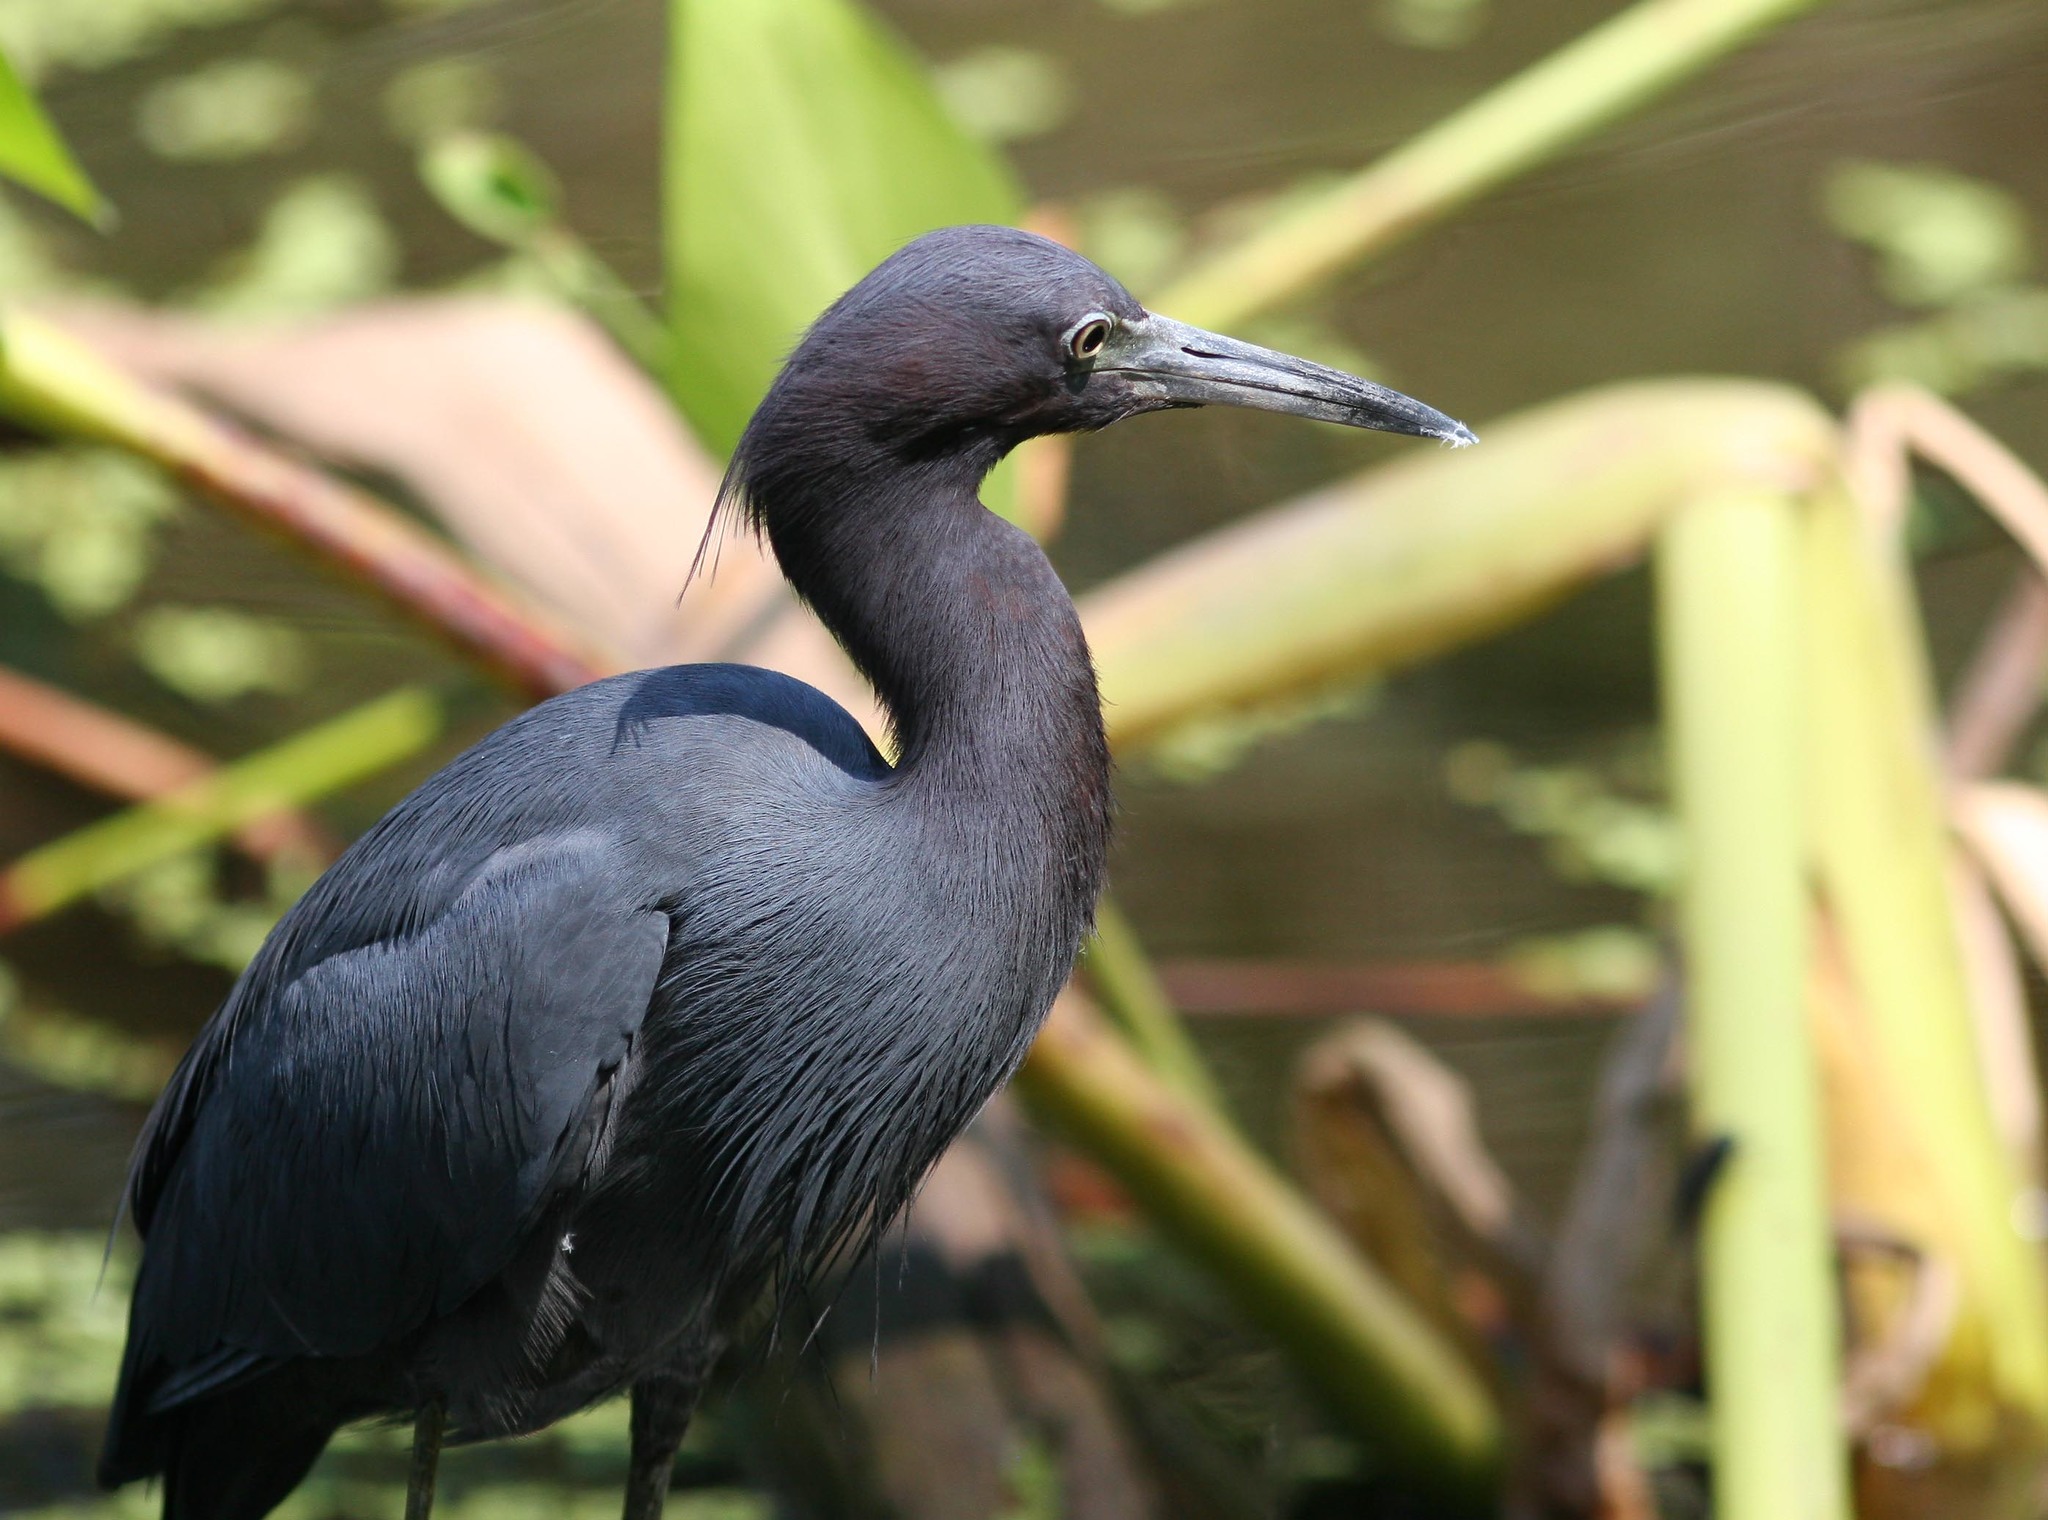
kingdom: Animalia
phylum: Chordata
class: Aves
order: Pelecaniformes
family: Ardeidae
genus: Egretta
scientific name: Egretta caerulea
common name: Little blue heron
